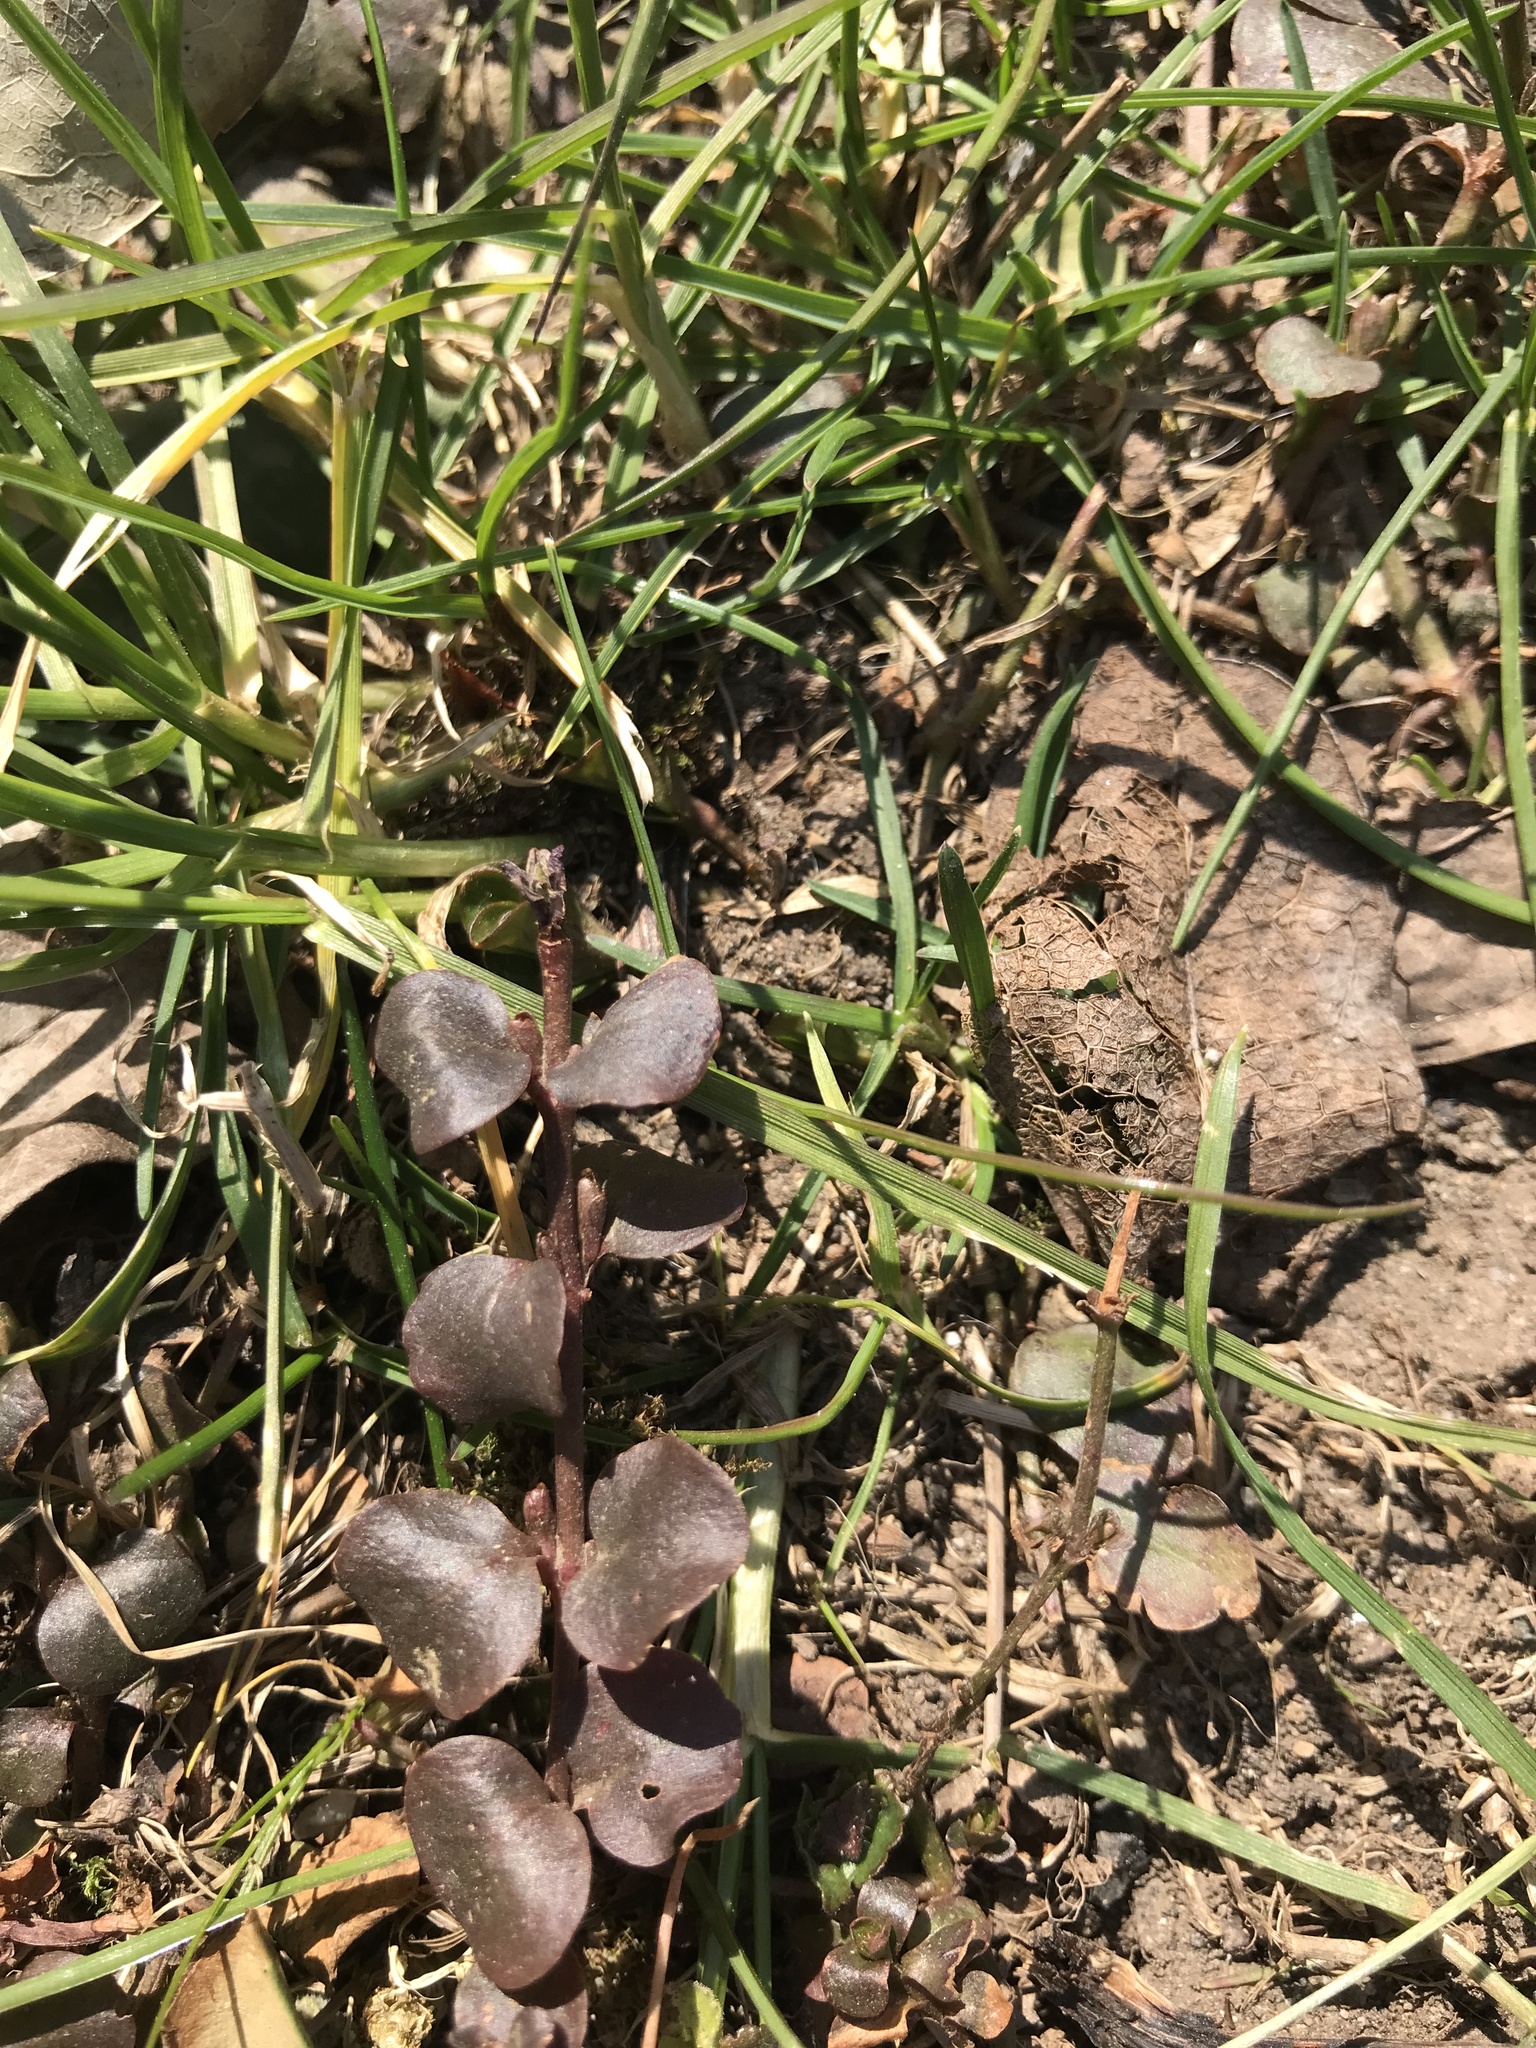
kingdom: Plantae
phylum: Tracheophyta
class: Magnoliopsida
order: Ericales
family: Primulaceae
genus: Lysimachia
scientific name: Lysimachia nummularia
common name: Moneywort
